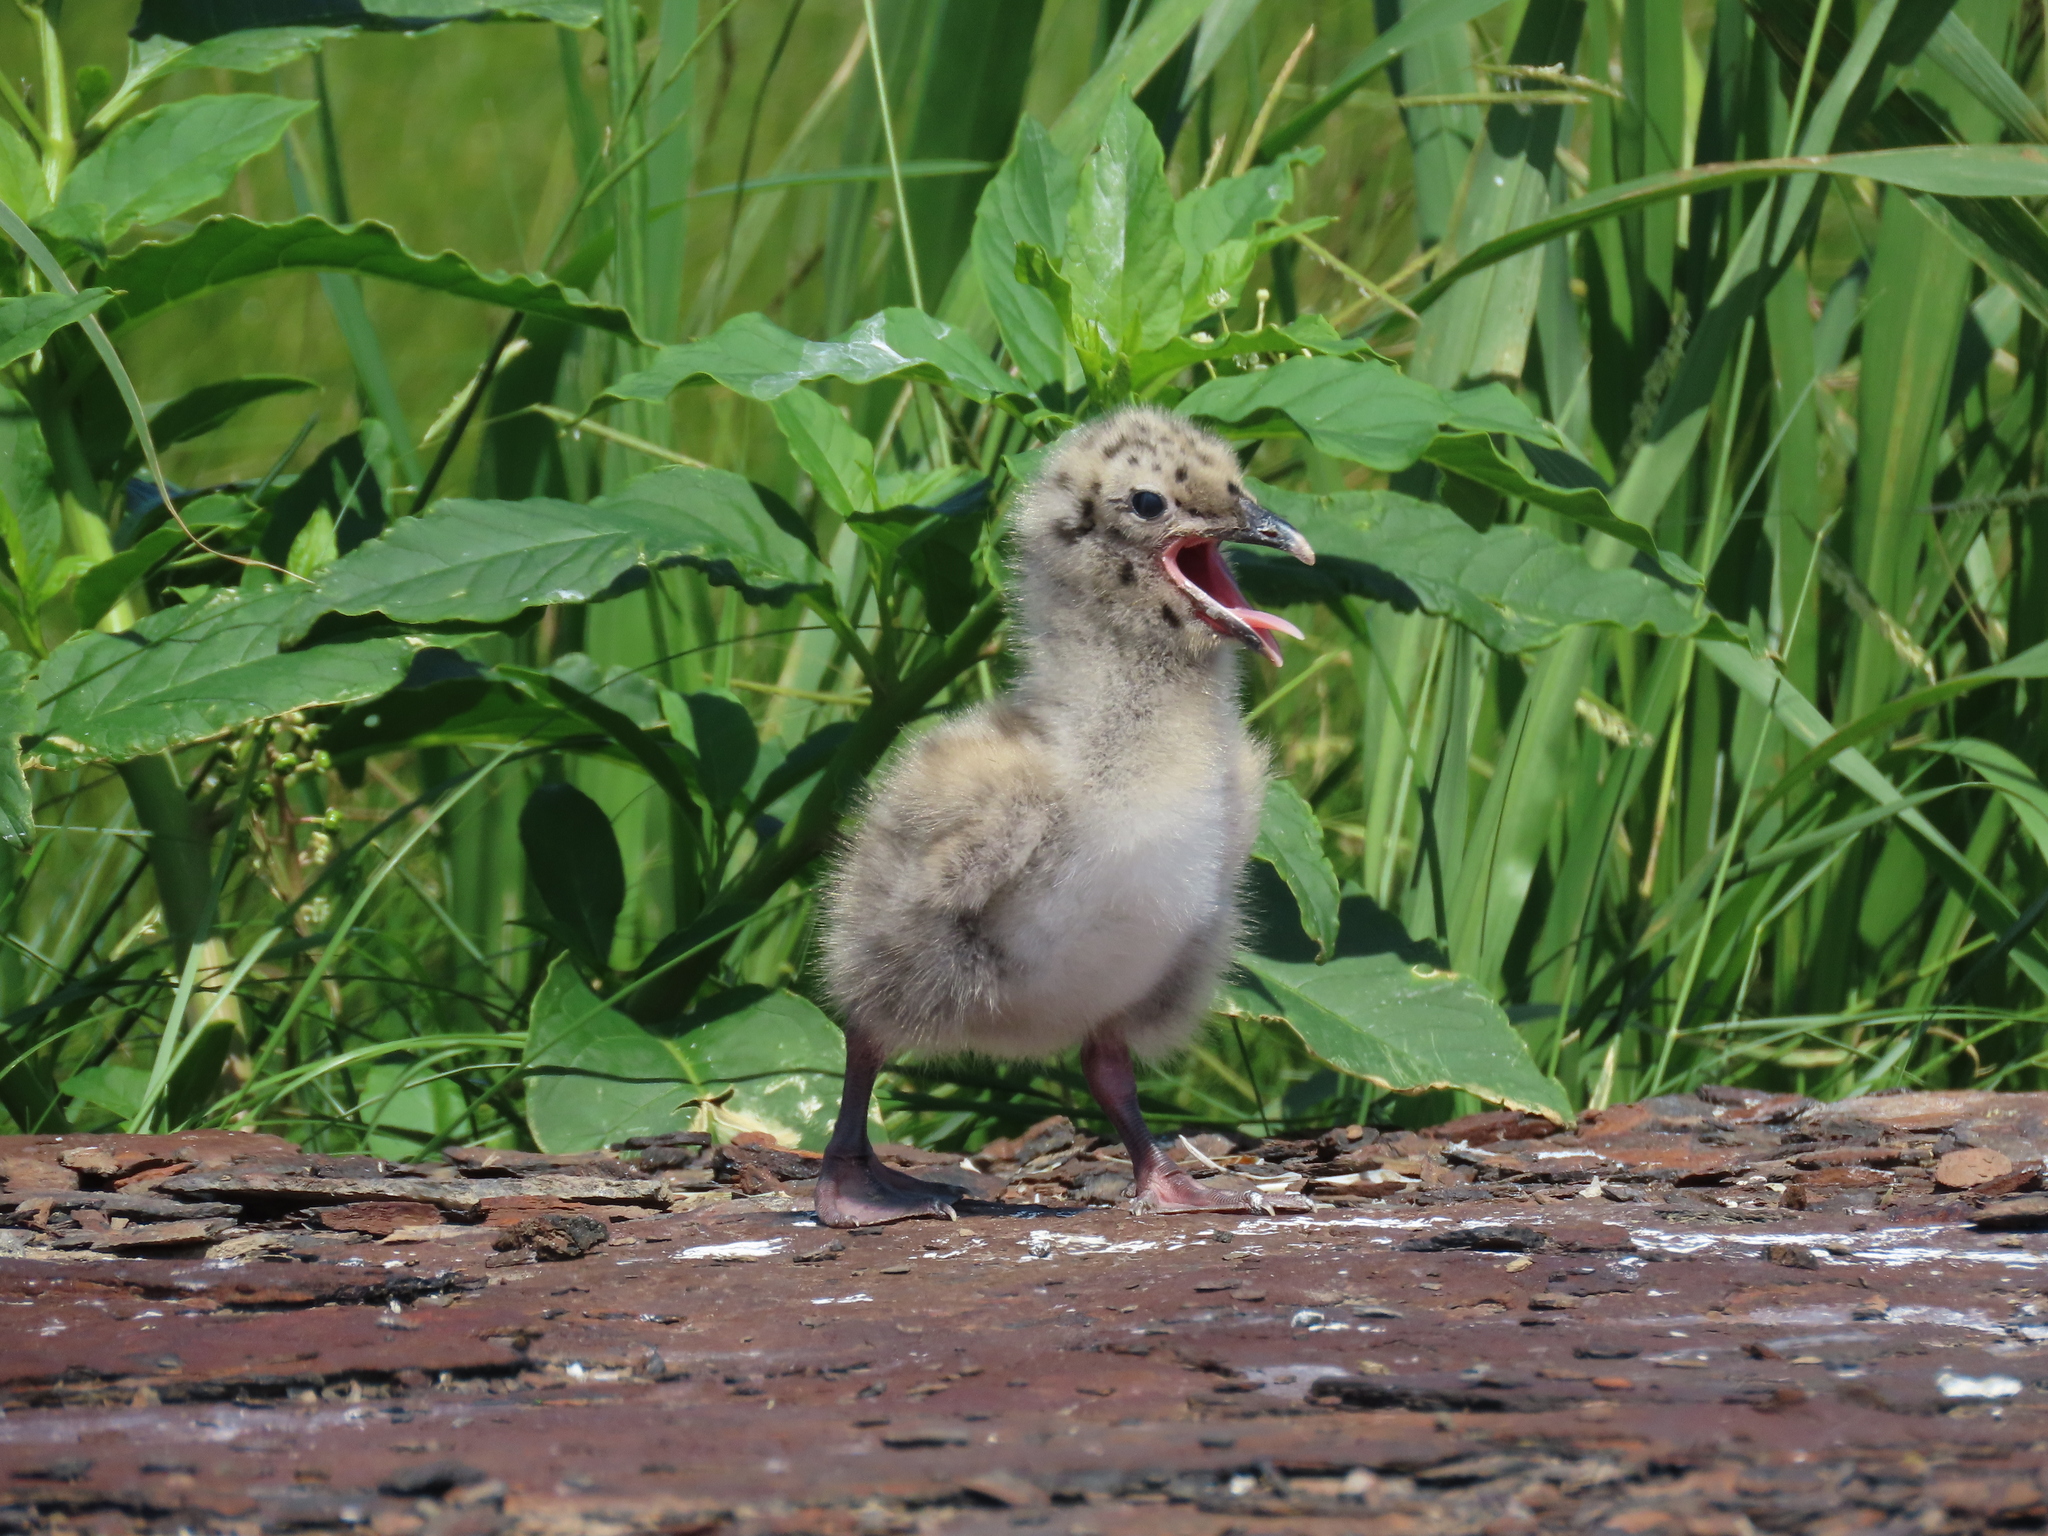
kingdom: Animalia
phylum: Chordata
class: Aves
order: Charadriiformes
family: Laridae
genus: Larus
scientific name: Larus argentatus
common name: Herring gull
